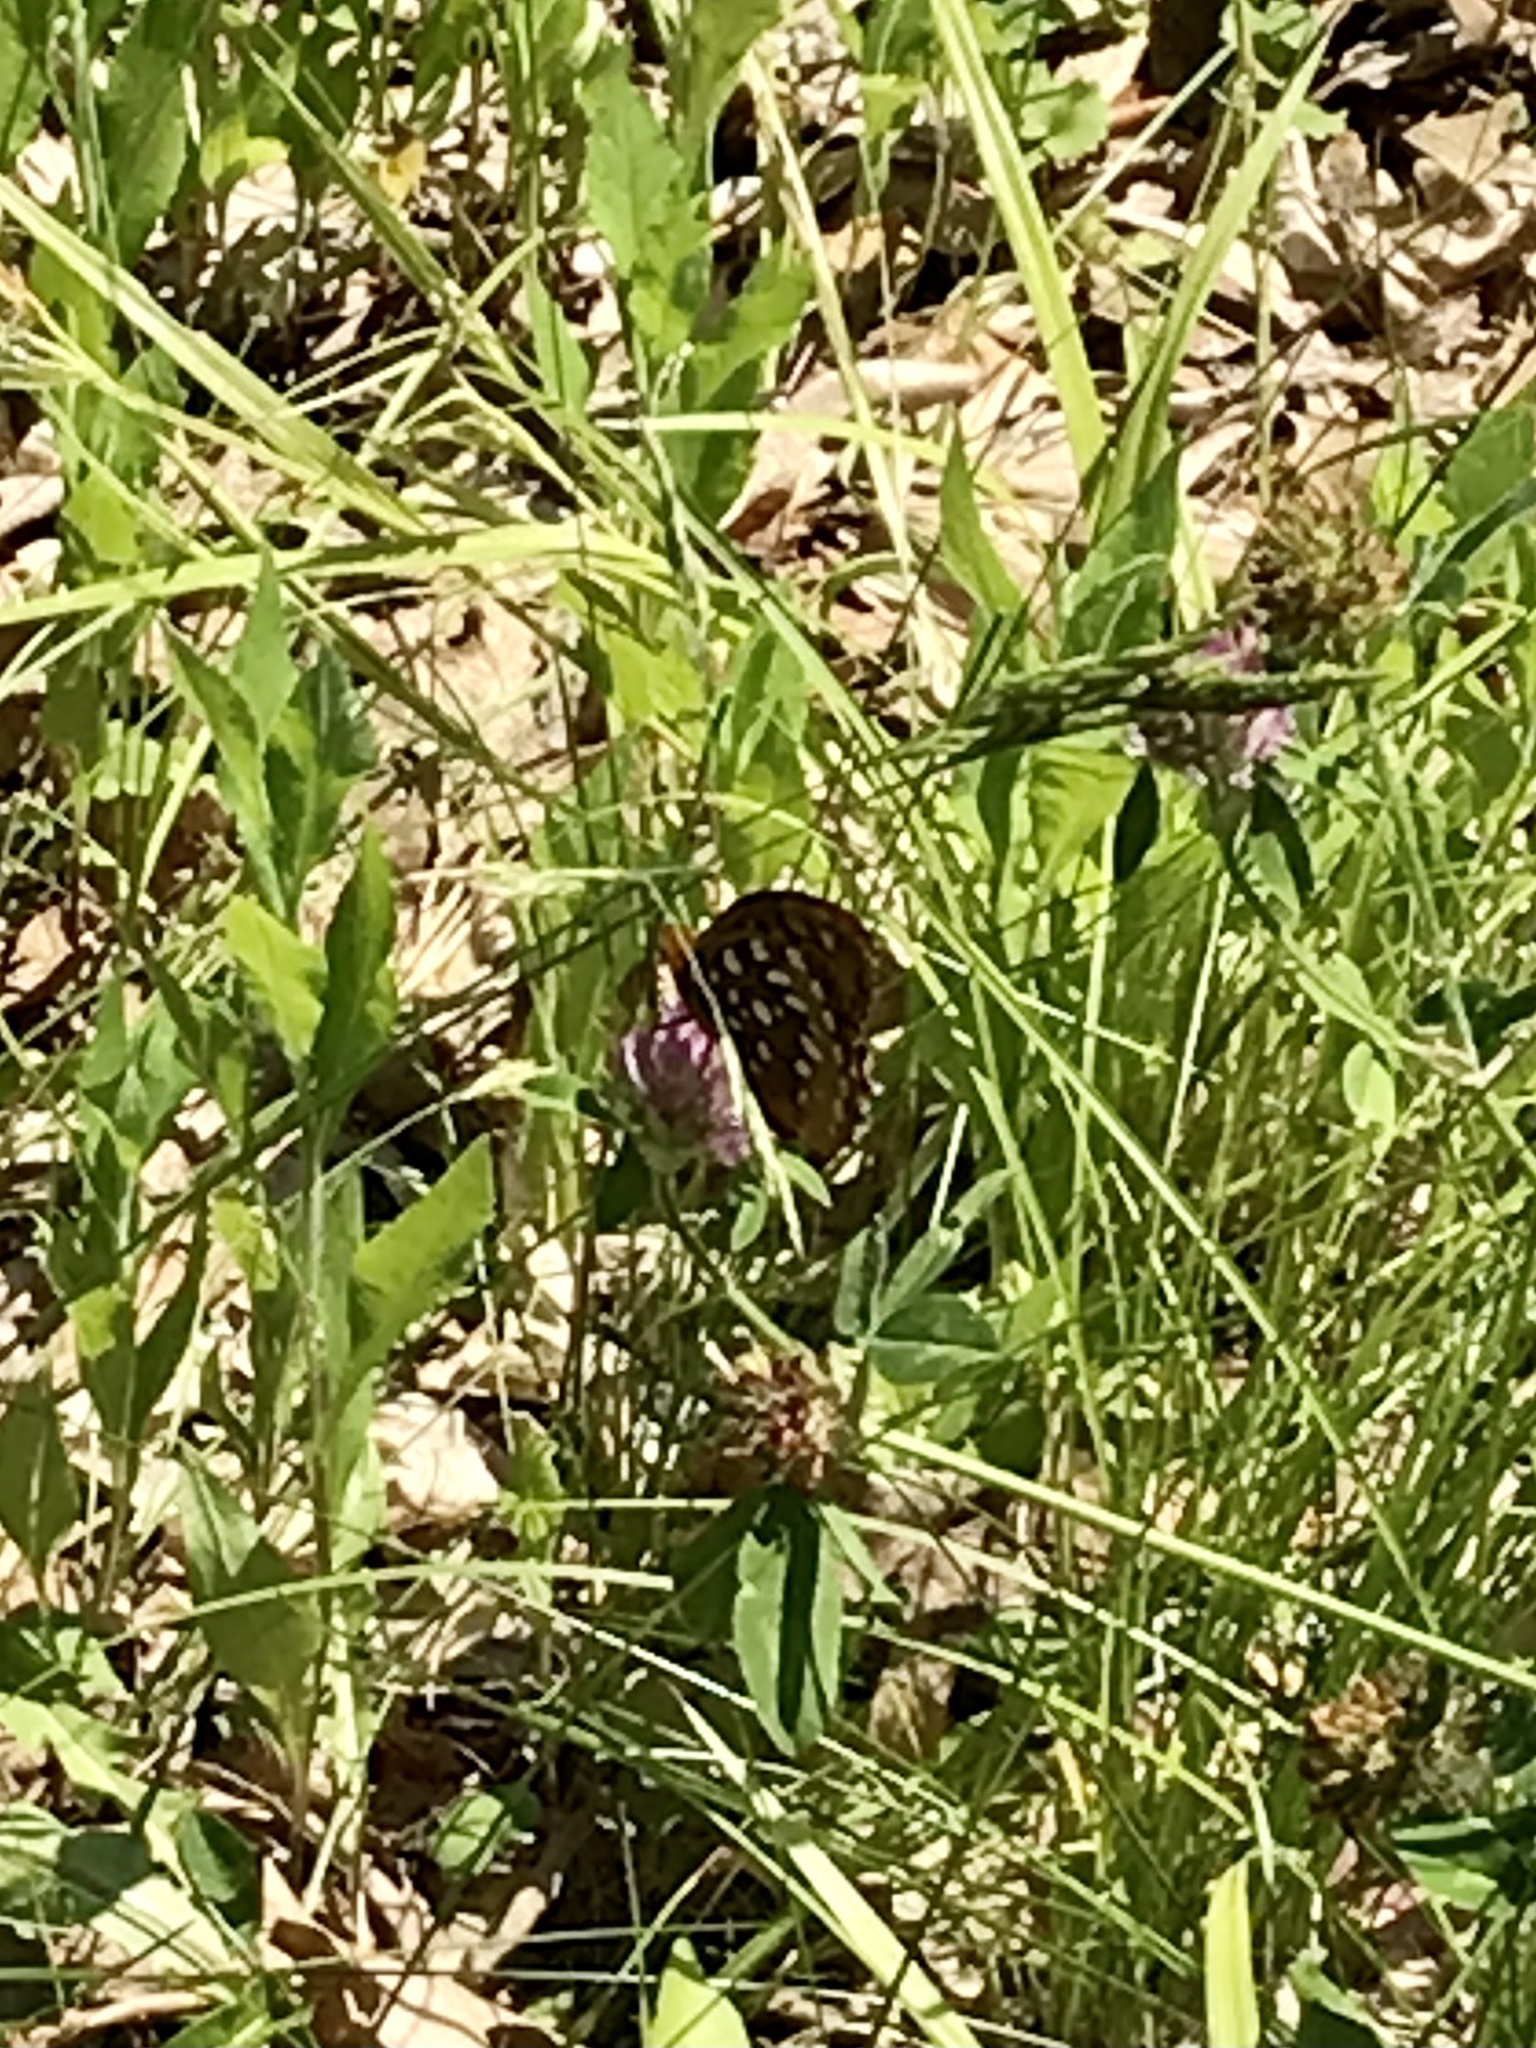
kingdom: Animalia
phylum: Arthropoda
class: Insecta
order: Lepidoptera
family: Nymphalidae
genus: Speyeria
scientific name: Speyeria cybele
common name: Great spangled fritillary
